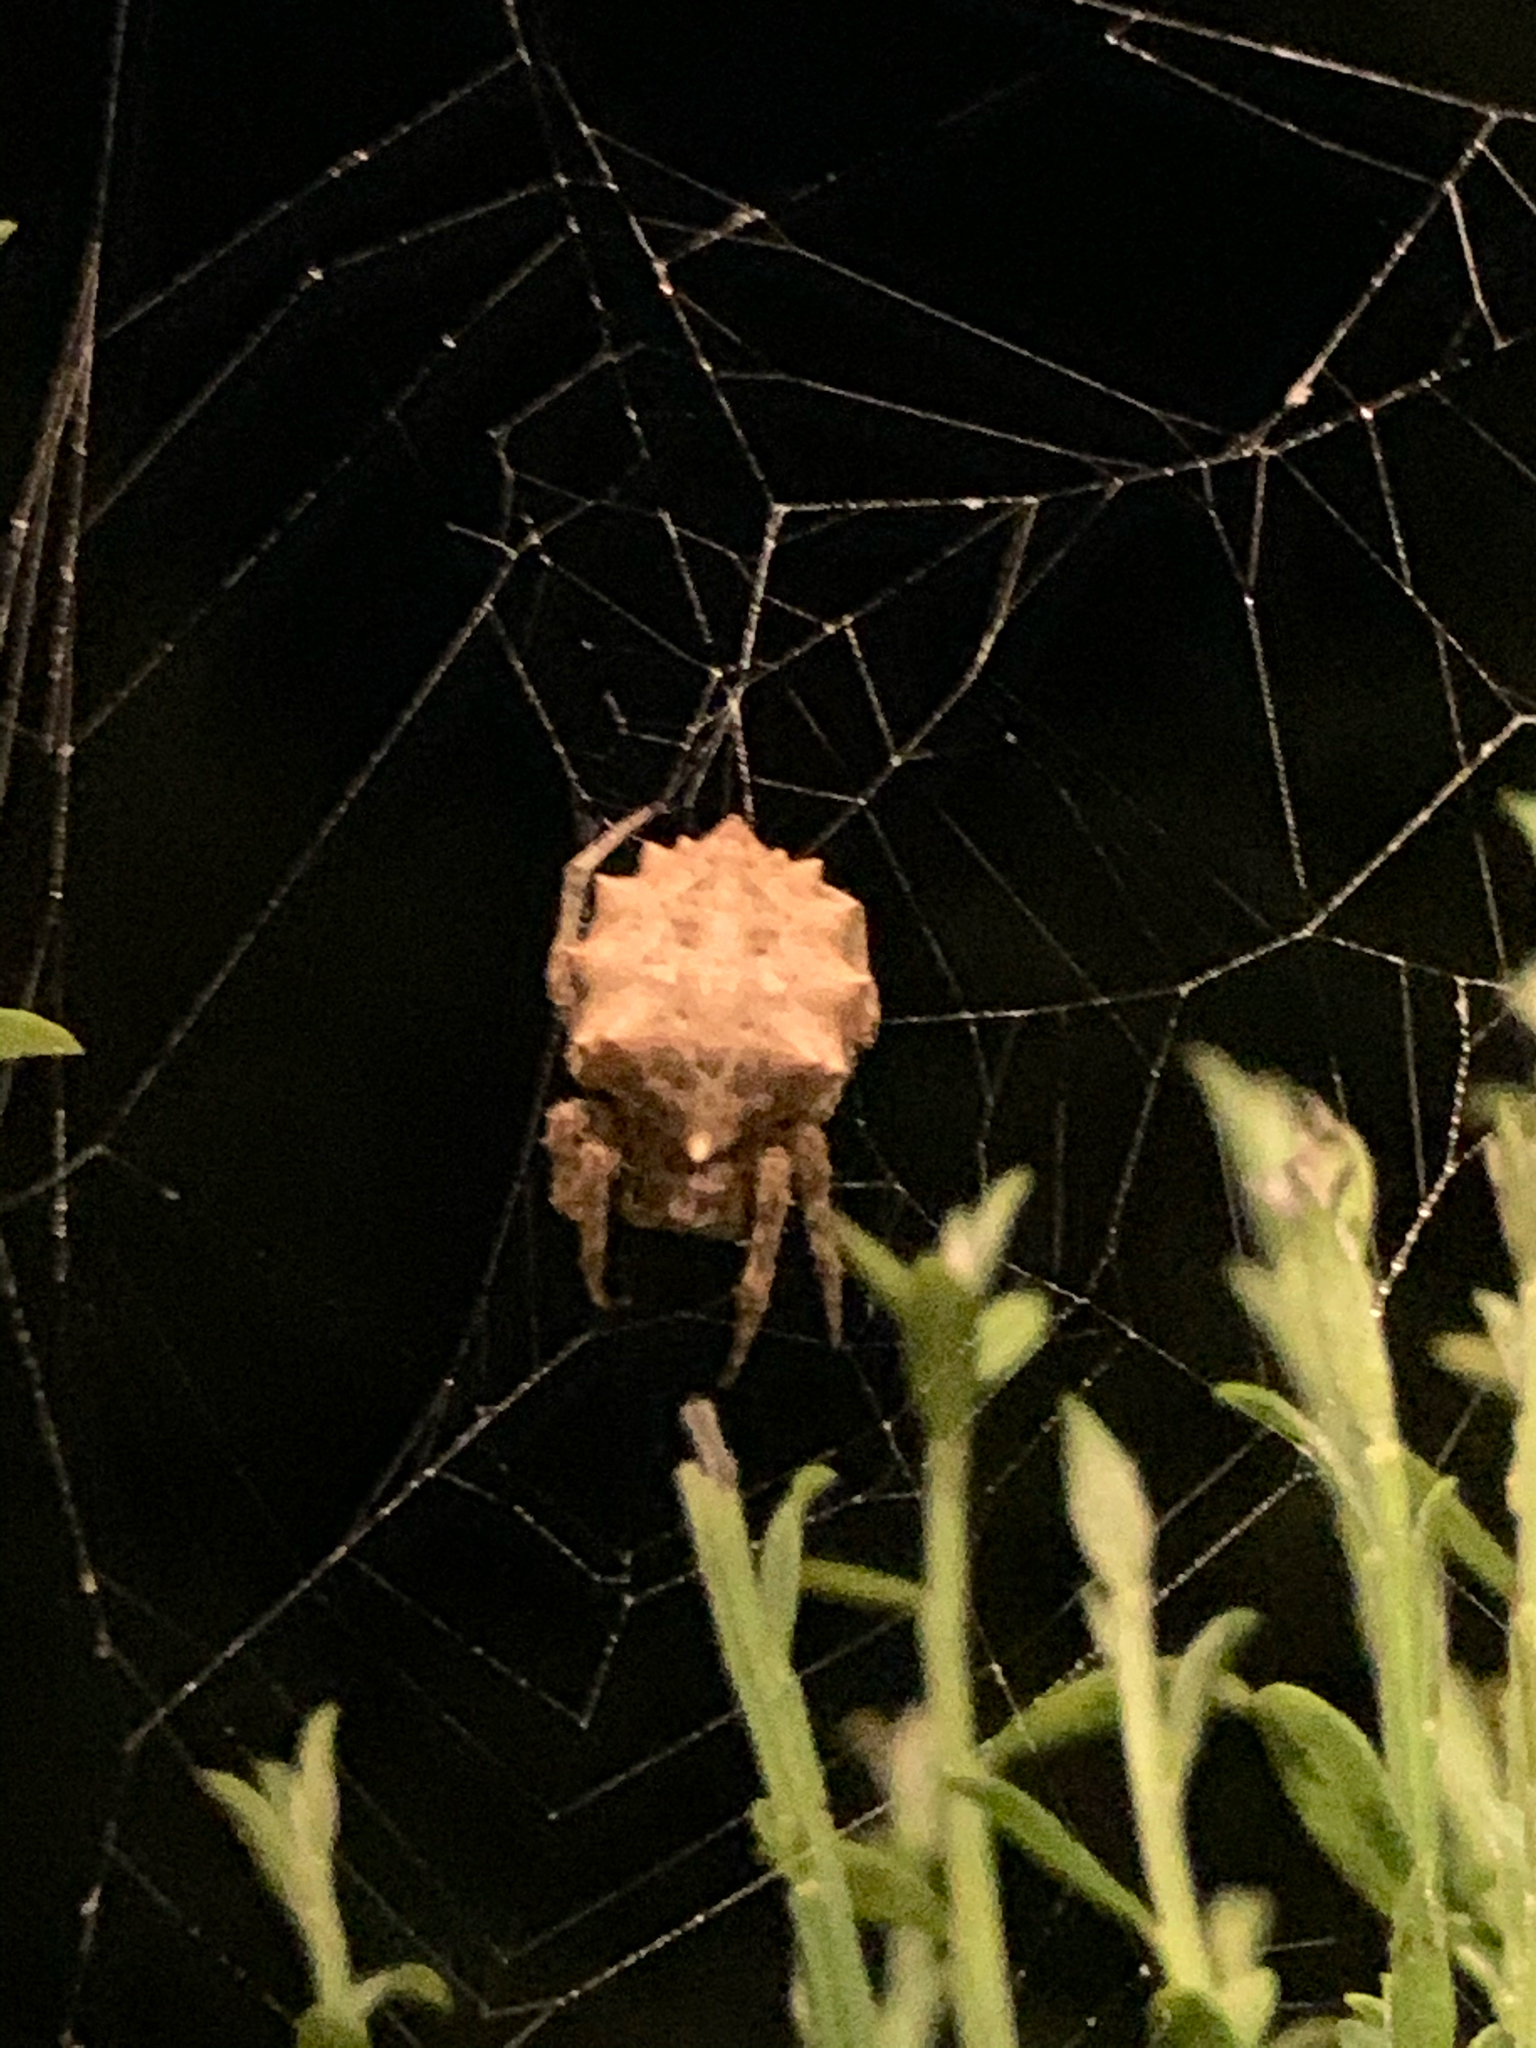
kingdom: Animalia
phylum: Arthropoda
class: Arachnida
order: Araneae
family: Araneidae
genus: Acanthepeira
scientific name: Acanthepeira stellata
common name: Starbellied orbweaver
